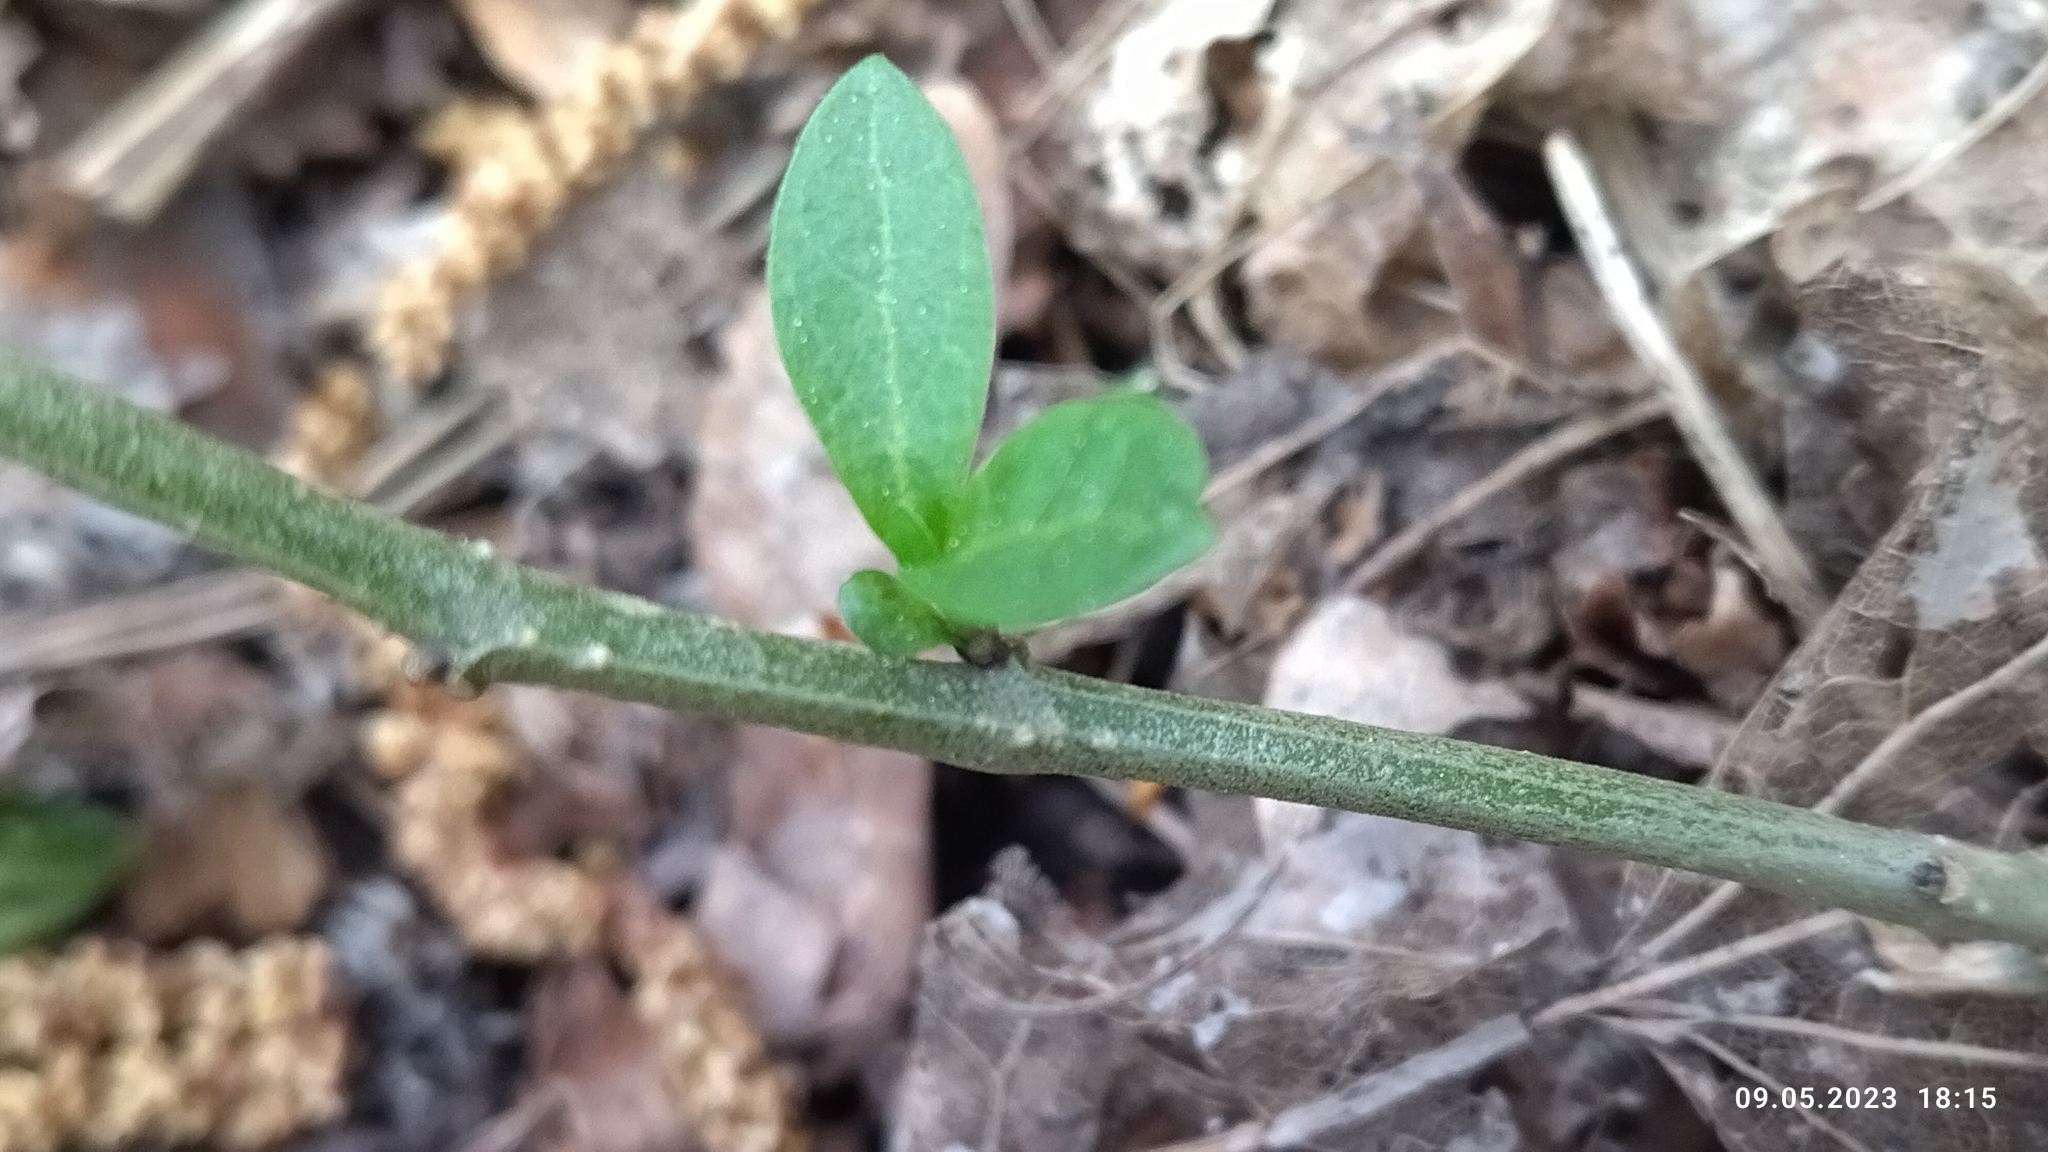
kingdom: Plantae
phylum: Tracheophyta
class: Magnoliopsida
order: Solanales
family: Solanaceae
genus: Solanum
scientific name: Solanum dulcamara
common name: Climbing nightshade
